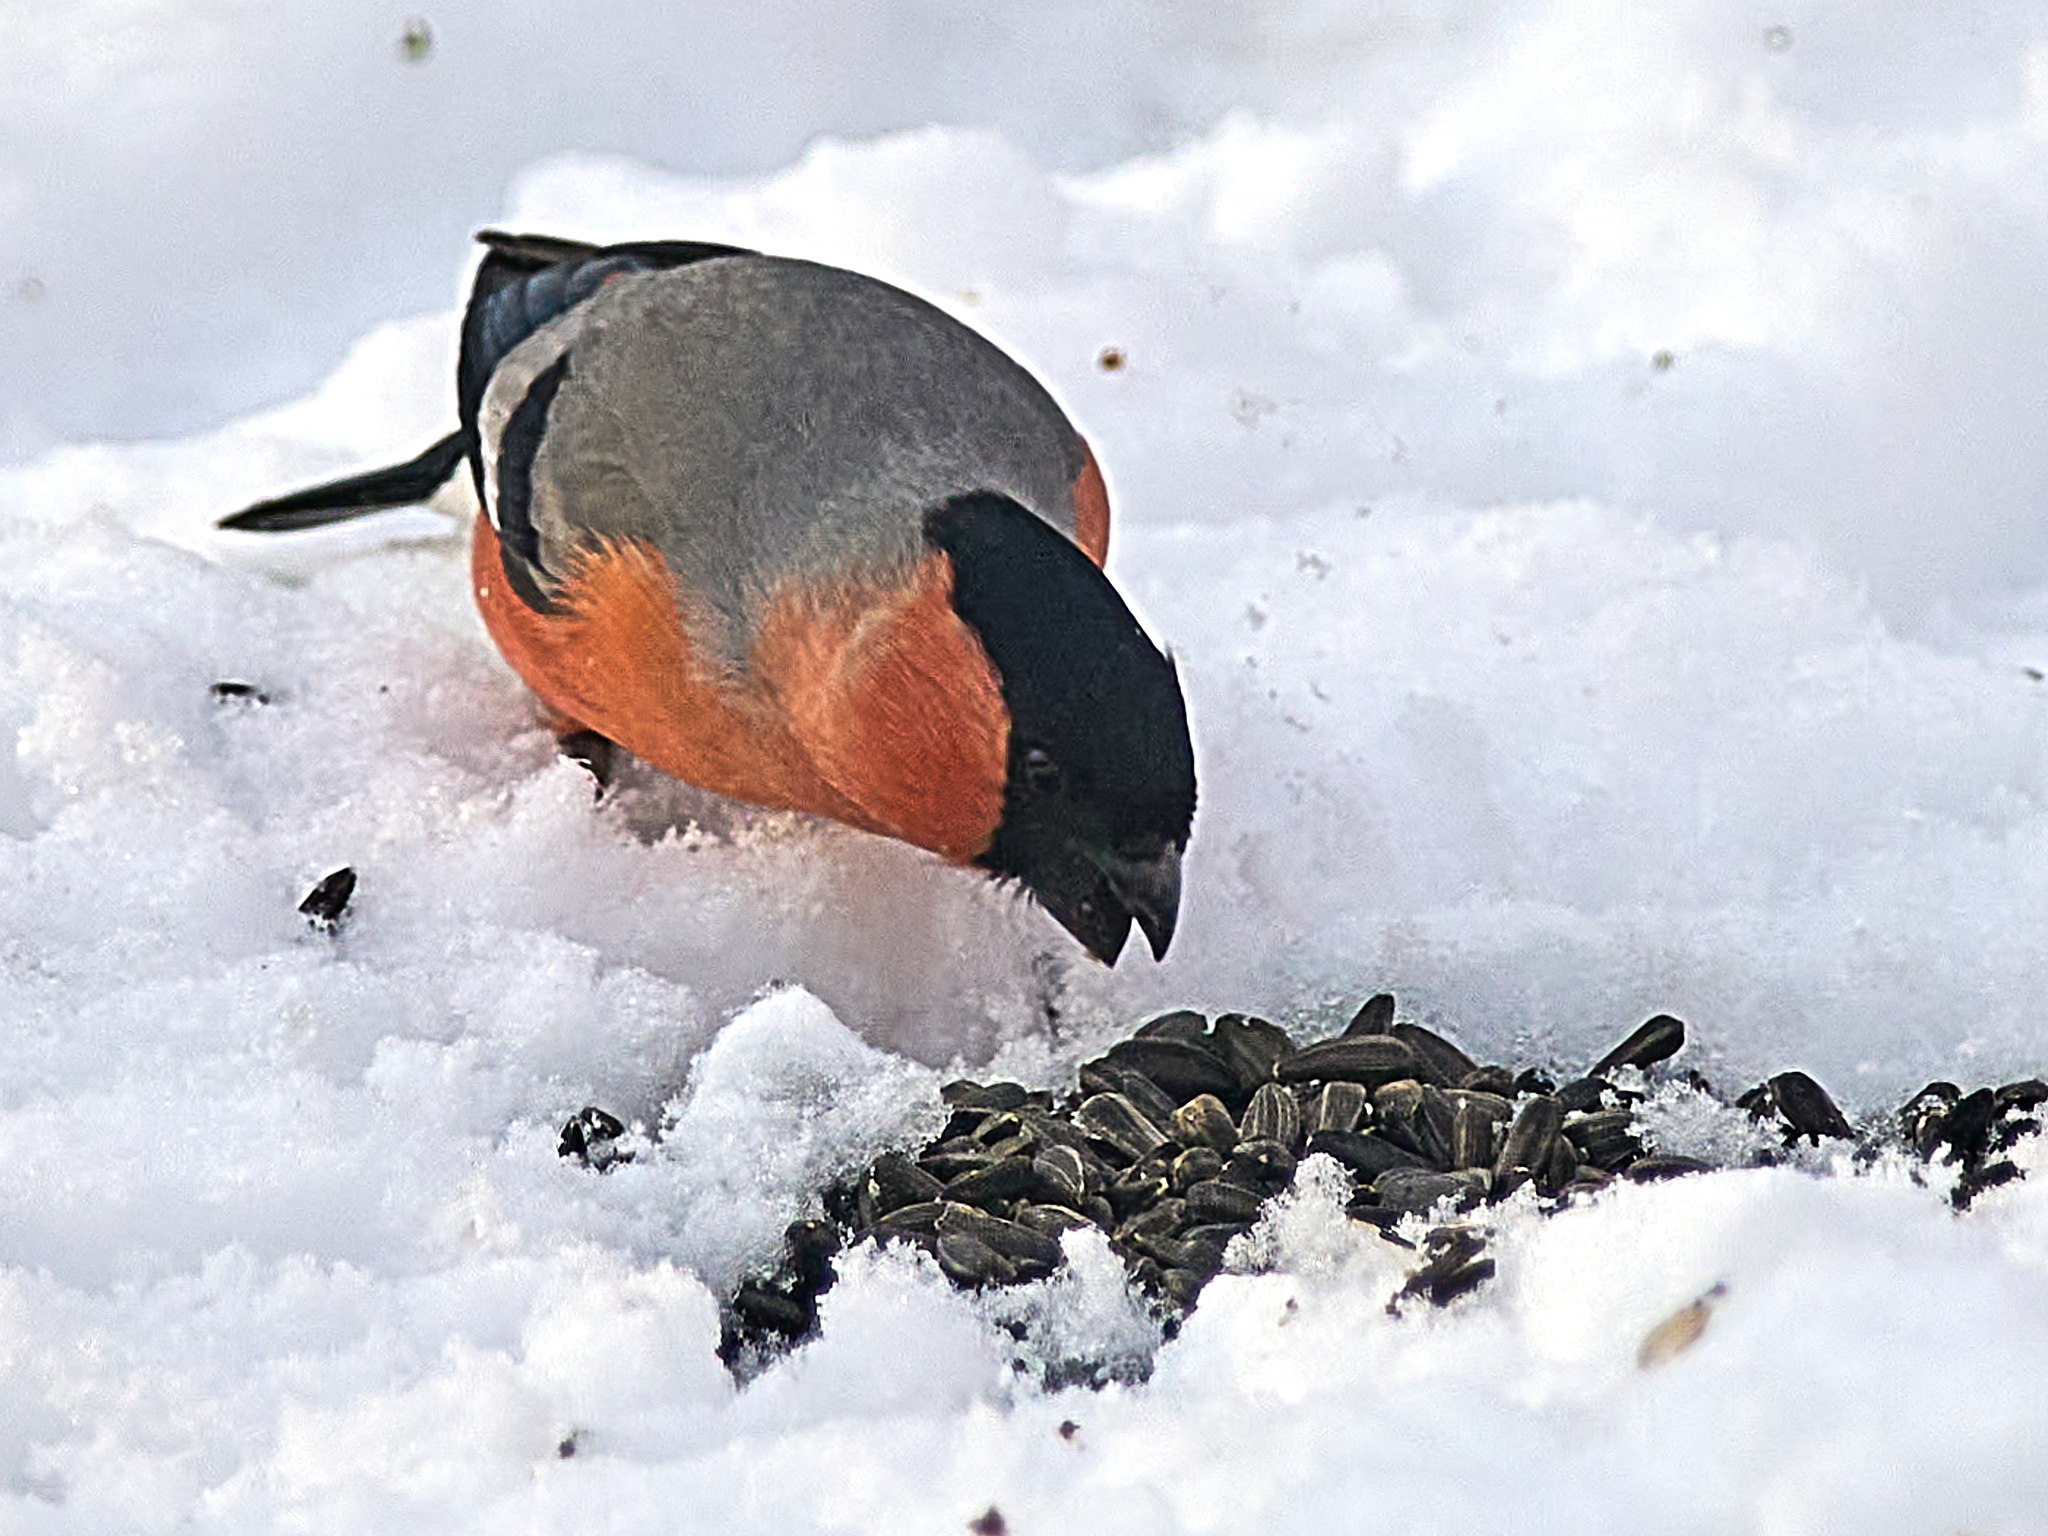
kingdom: Animalia
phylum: Chordata
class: Aves
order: Passeriformes
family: Fringillidae
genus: Pyrrhula
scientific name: Pyrrhula pyrrhula
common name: Eurasian bullfinch
